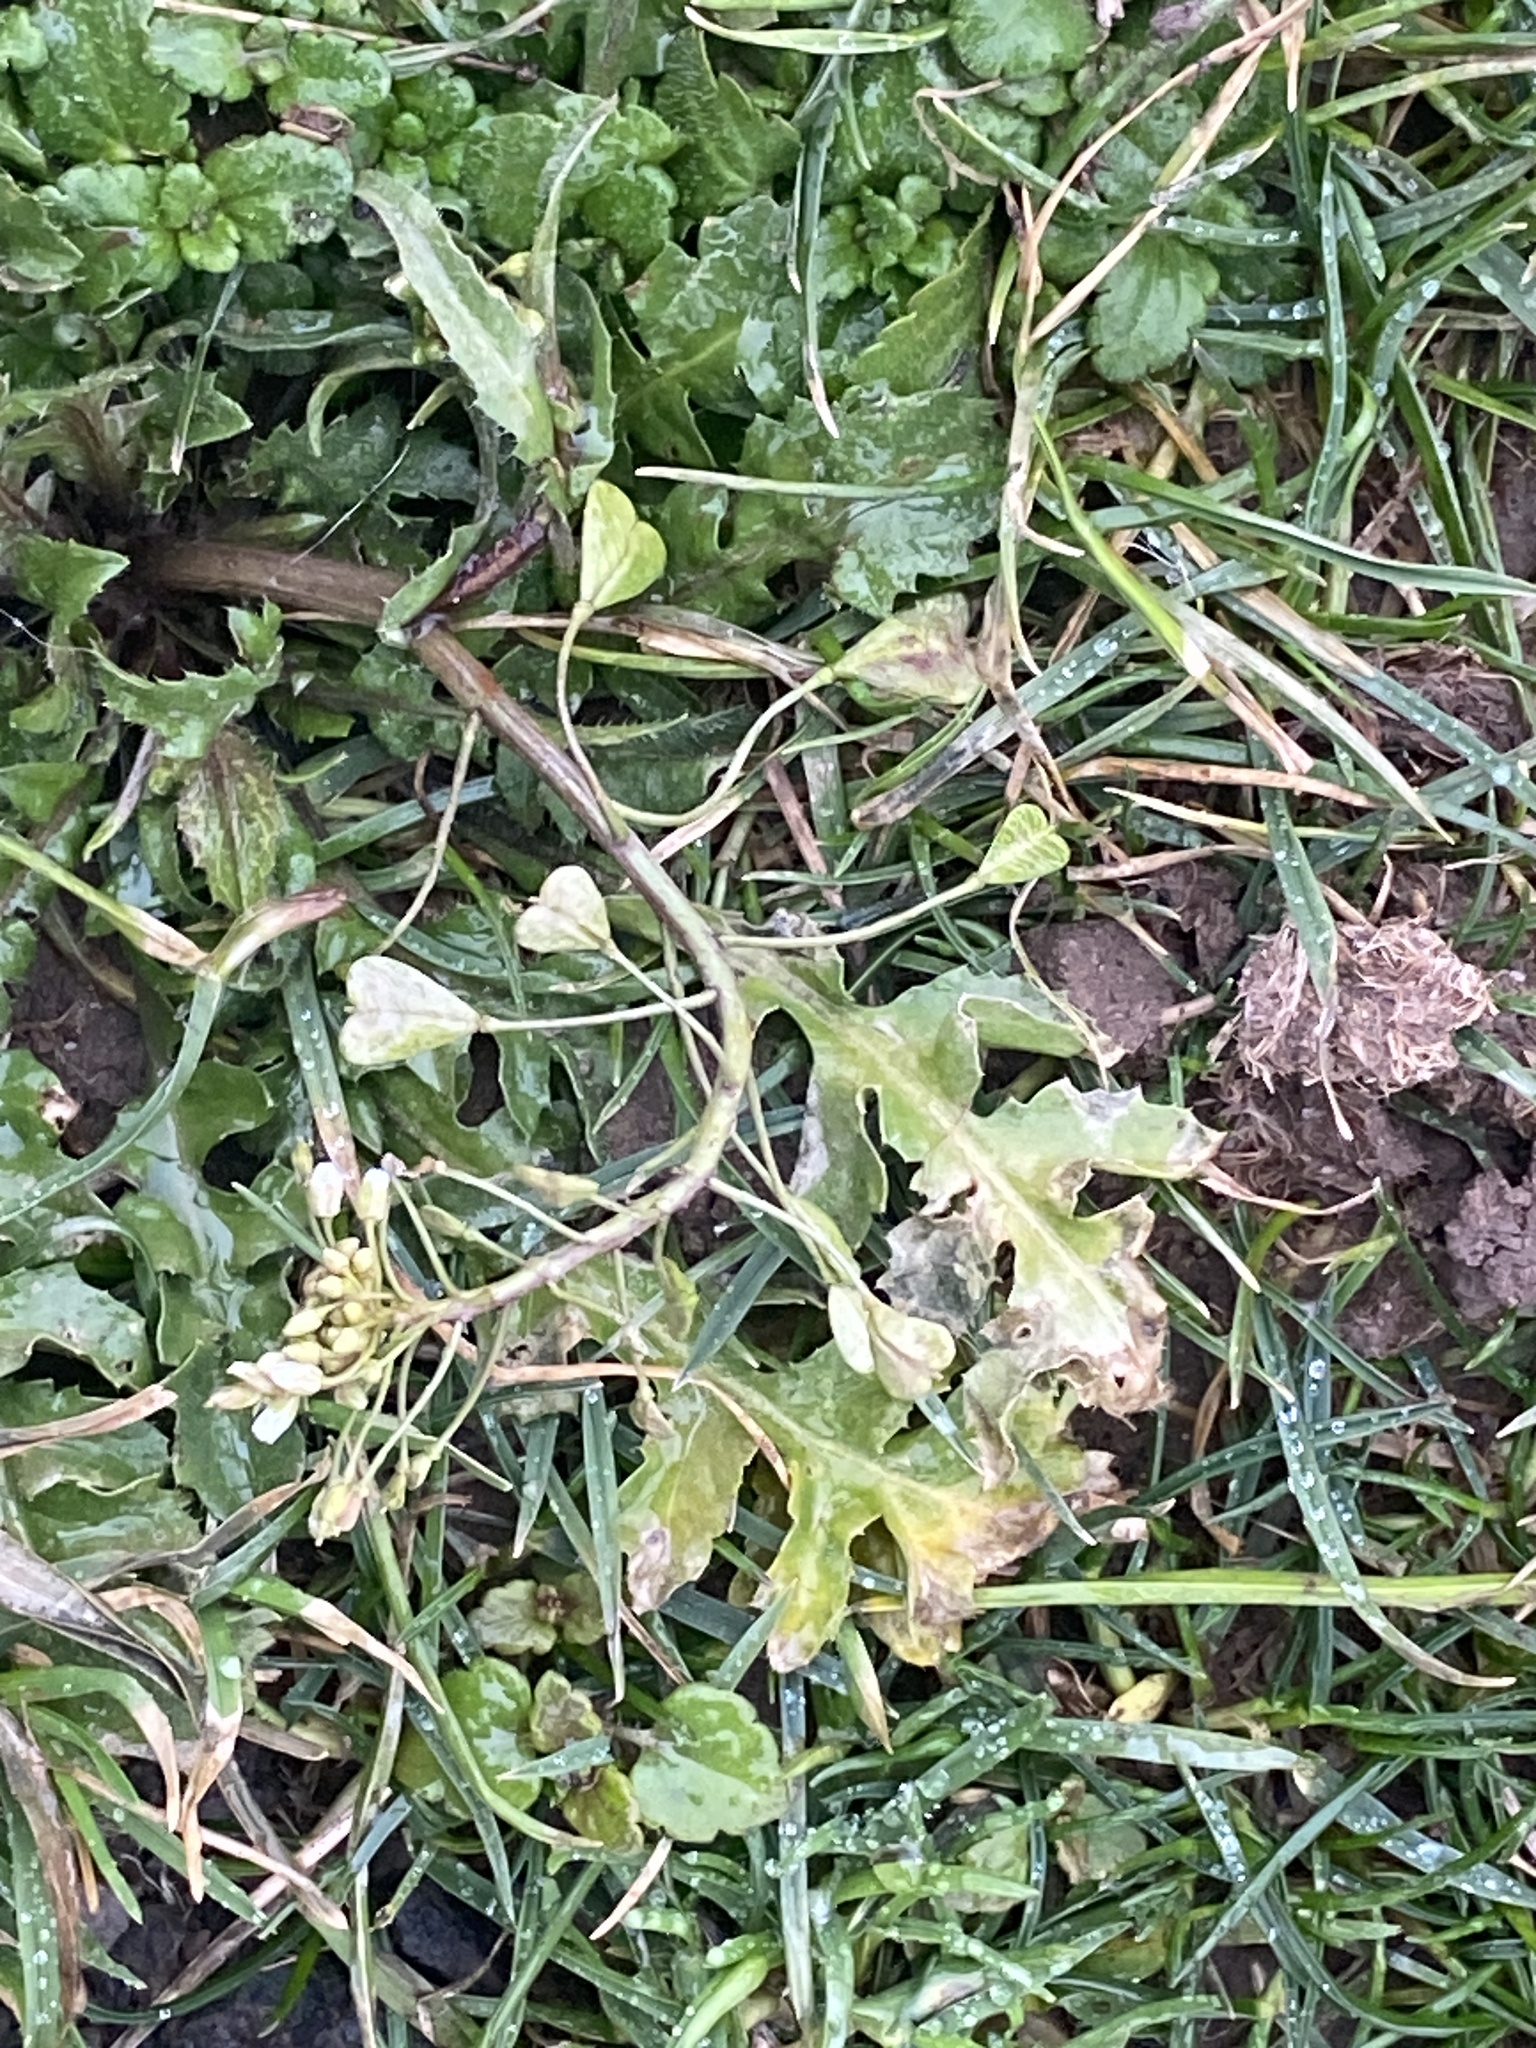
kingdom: Plantae
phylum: Tracheophyta
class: Magnoliopsida
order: Brassicales
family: Brassicaceae
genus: Capsella
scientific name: Capsella bursa-pastoris
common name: Shepherd's purse
